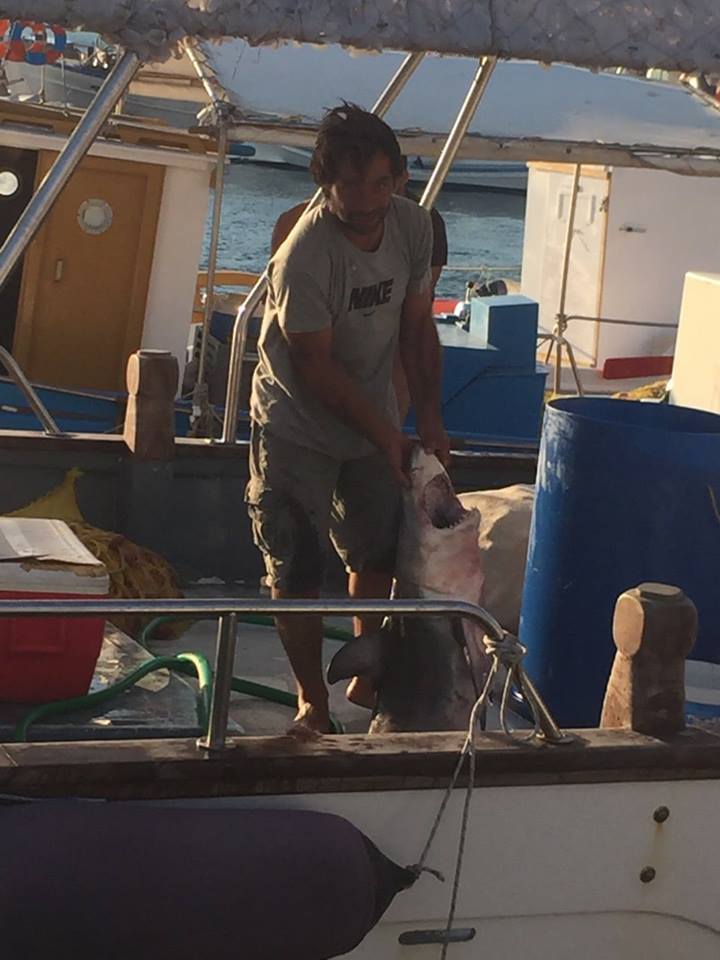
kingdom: Animalia
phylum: Chordata
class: Elasmobranchii
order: Lamniformes
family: Lamnidae
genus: Carcharodon
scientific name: Carcharodon carcharias
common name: Great white shark
